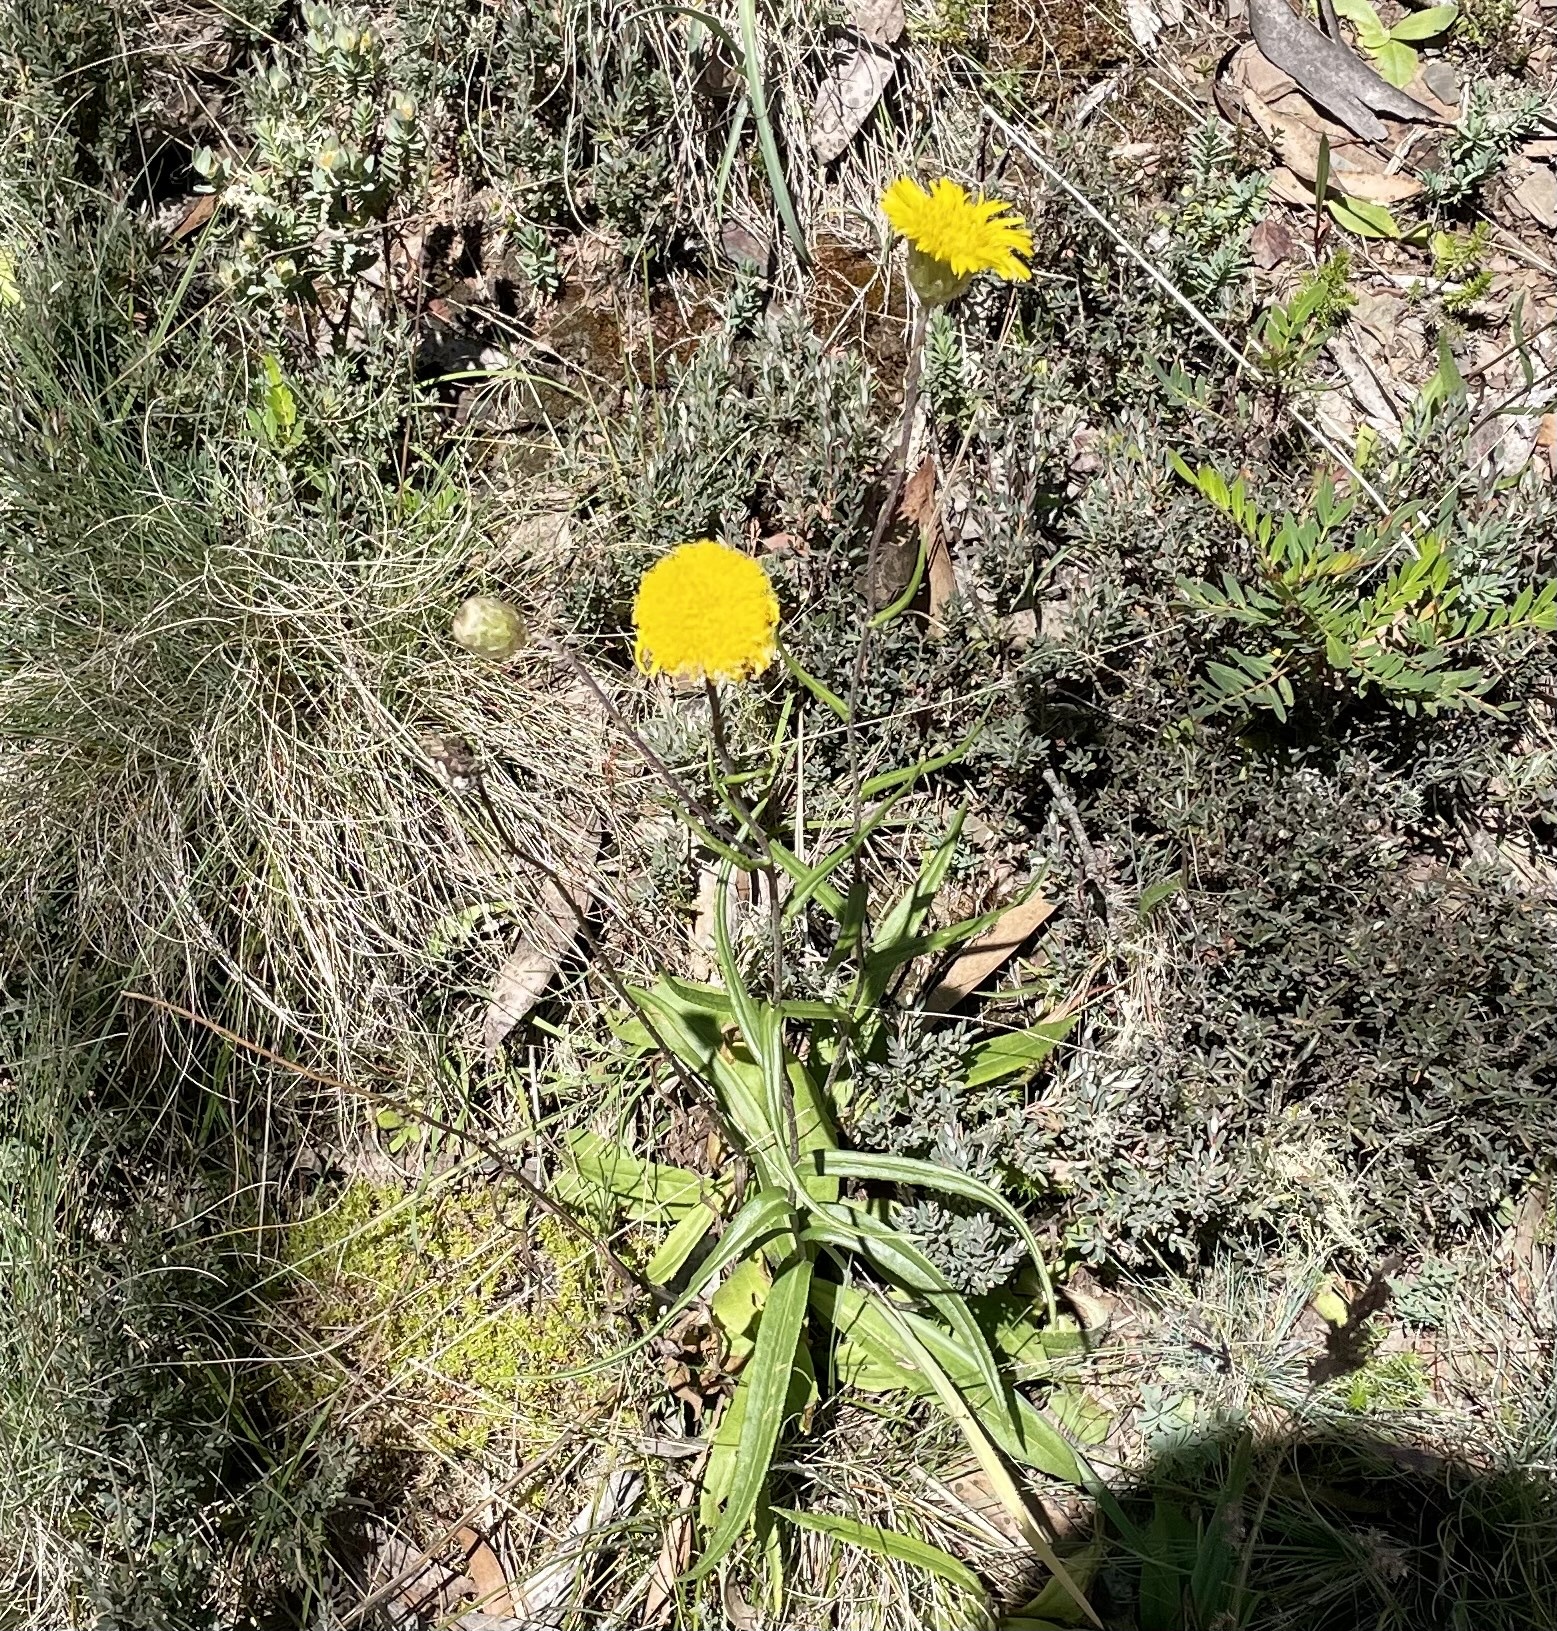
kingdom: Plantae
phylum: Tracheophyta
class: Magnoliopsida
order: Asterales
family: Asteraceae
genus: Podolepis
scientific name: Podolepis jaceoides
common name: Showy copper-wired daisy
